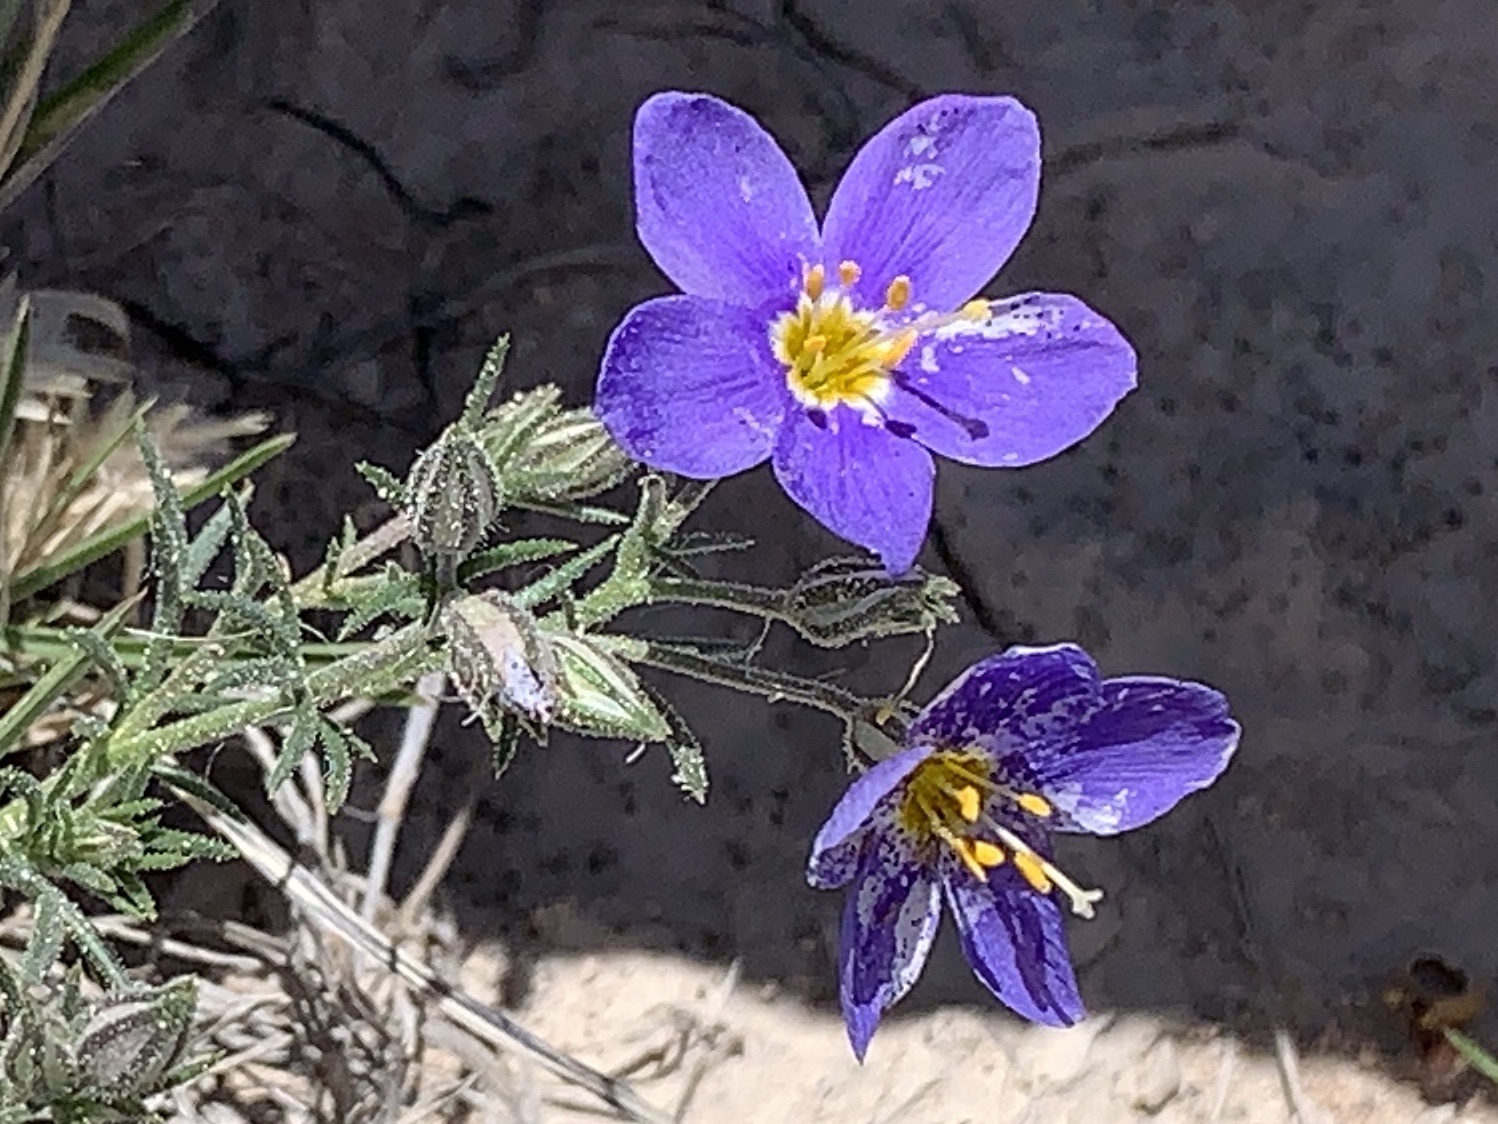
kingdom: Plantae
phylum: Tracheophyta
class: Magnoliopsida
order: Ericales
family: Polemoniaceae
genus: Giliastrum
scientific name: Giliastrum acerosum
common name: Bluebowls
